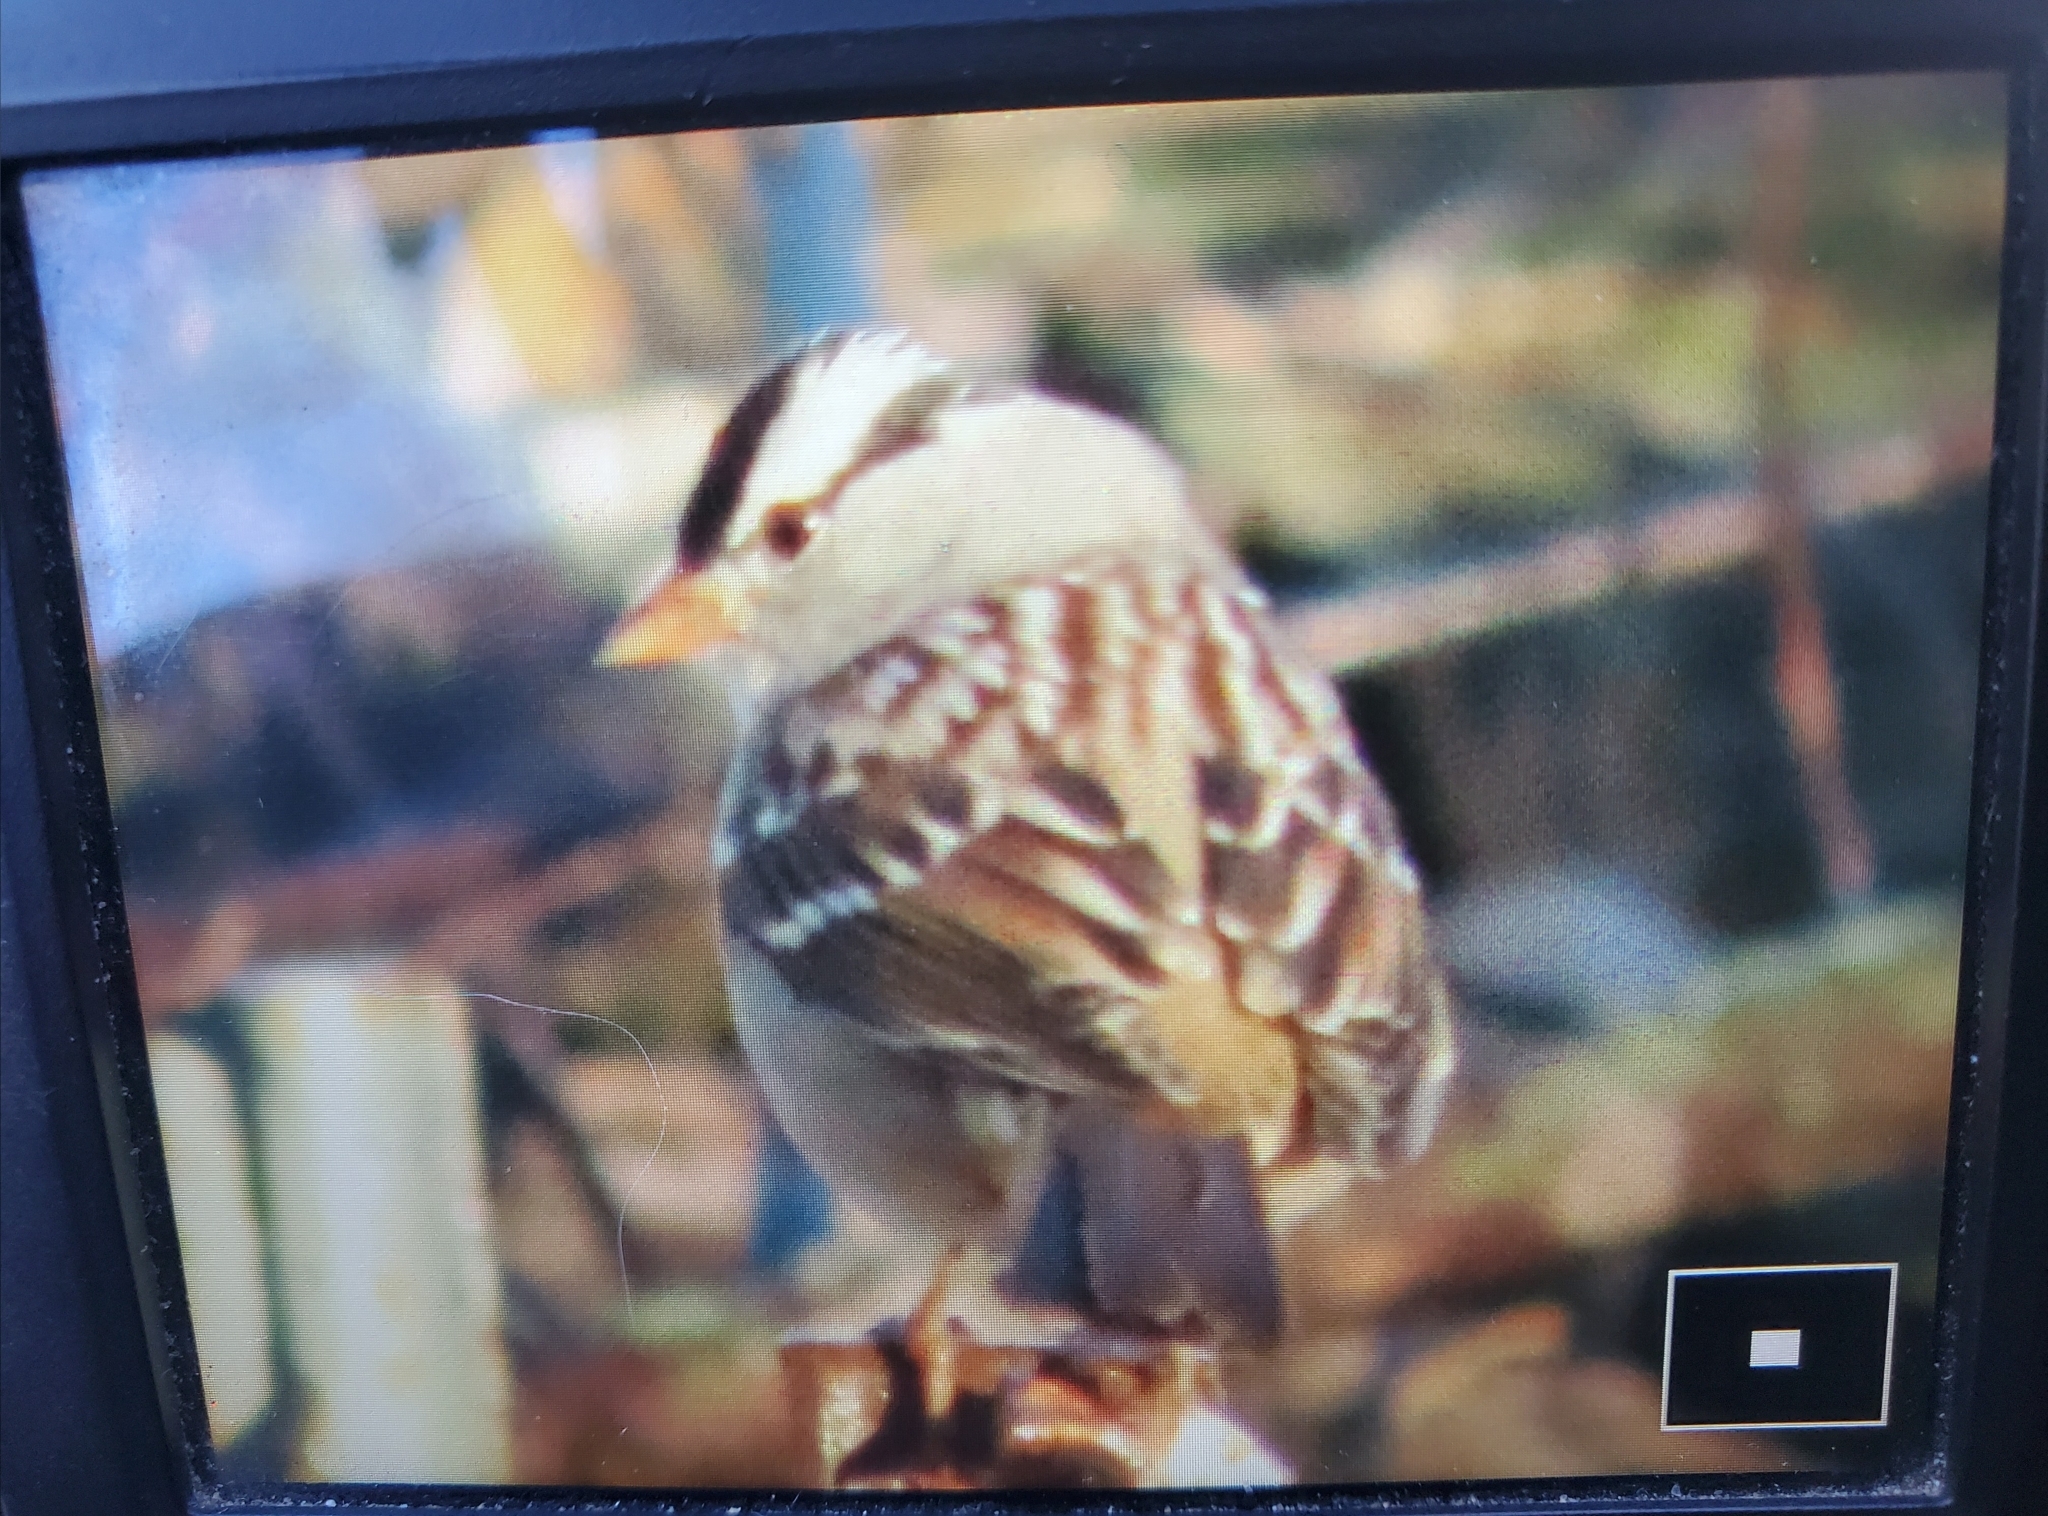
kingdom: Animalia
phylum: Chordata
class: Aves
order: Passeriformes
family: Passerellidae
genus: Zonotrichia
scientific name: Zonotrichia leucophrys
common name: White-crowned sparrow
